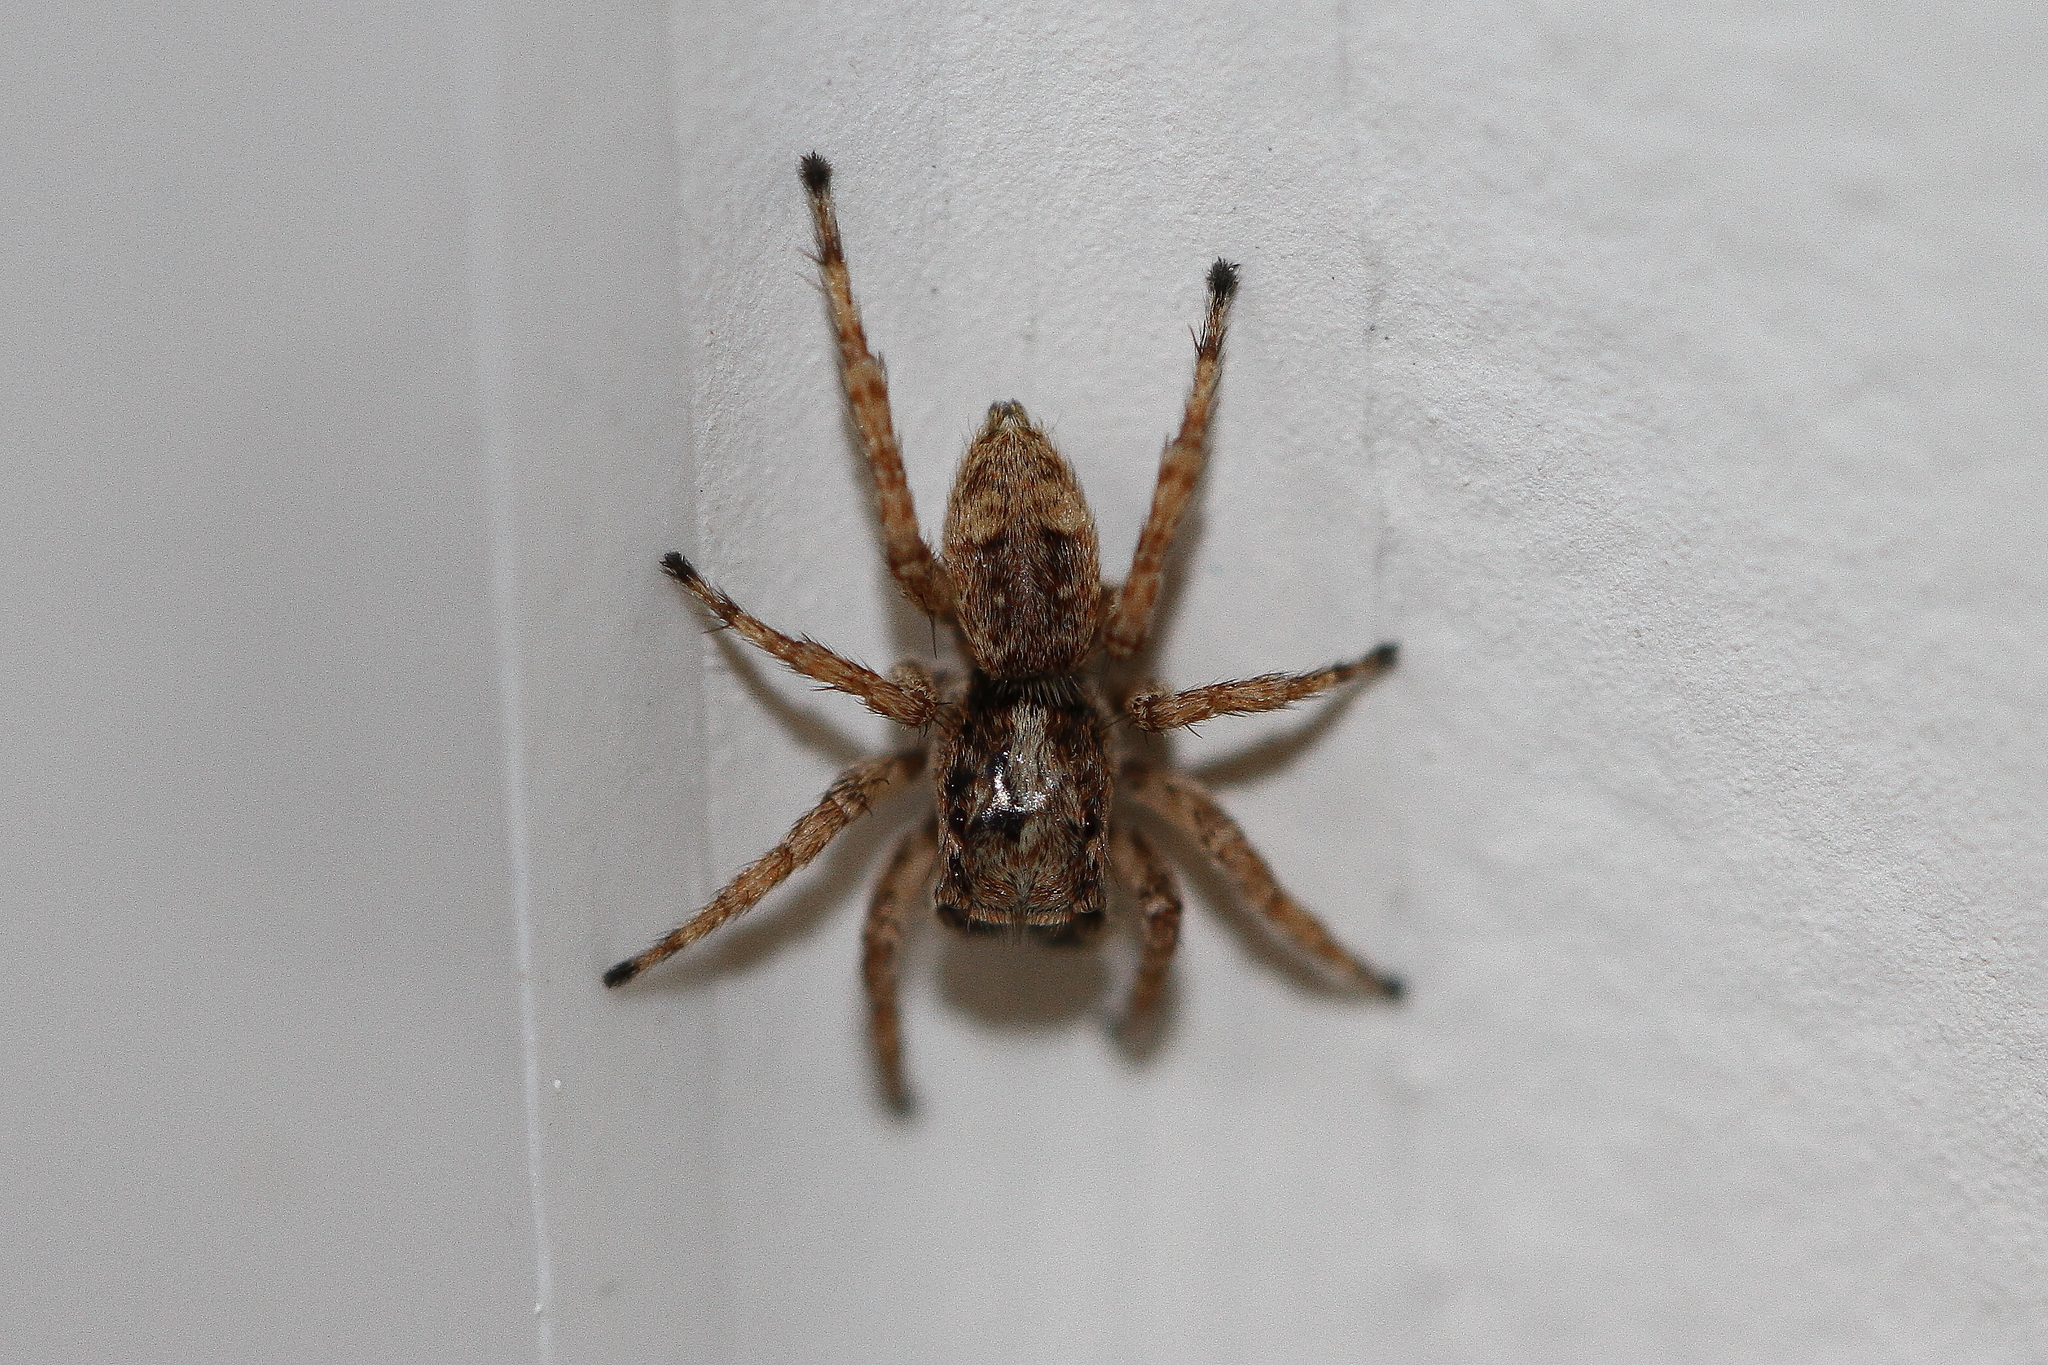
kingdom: Animalia
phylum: Arthropoda
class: Arachnida
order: Araneae
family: Salticidae
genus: Attulus
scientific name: Attulus fasciger
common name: Asiatic wall jumping spider
